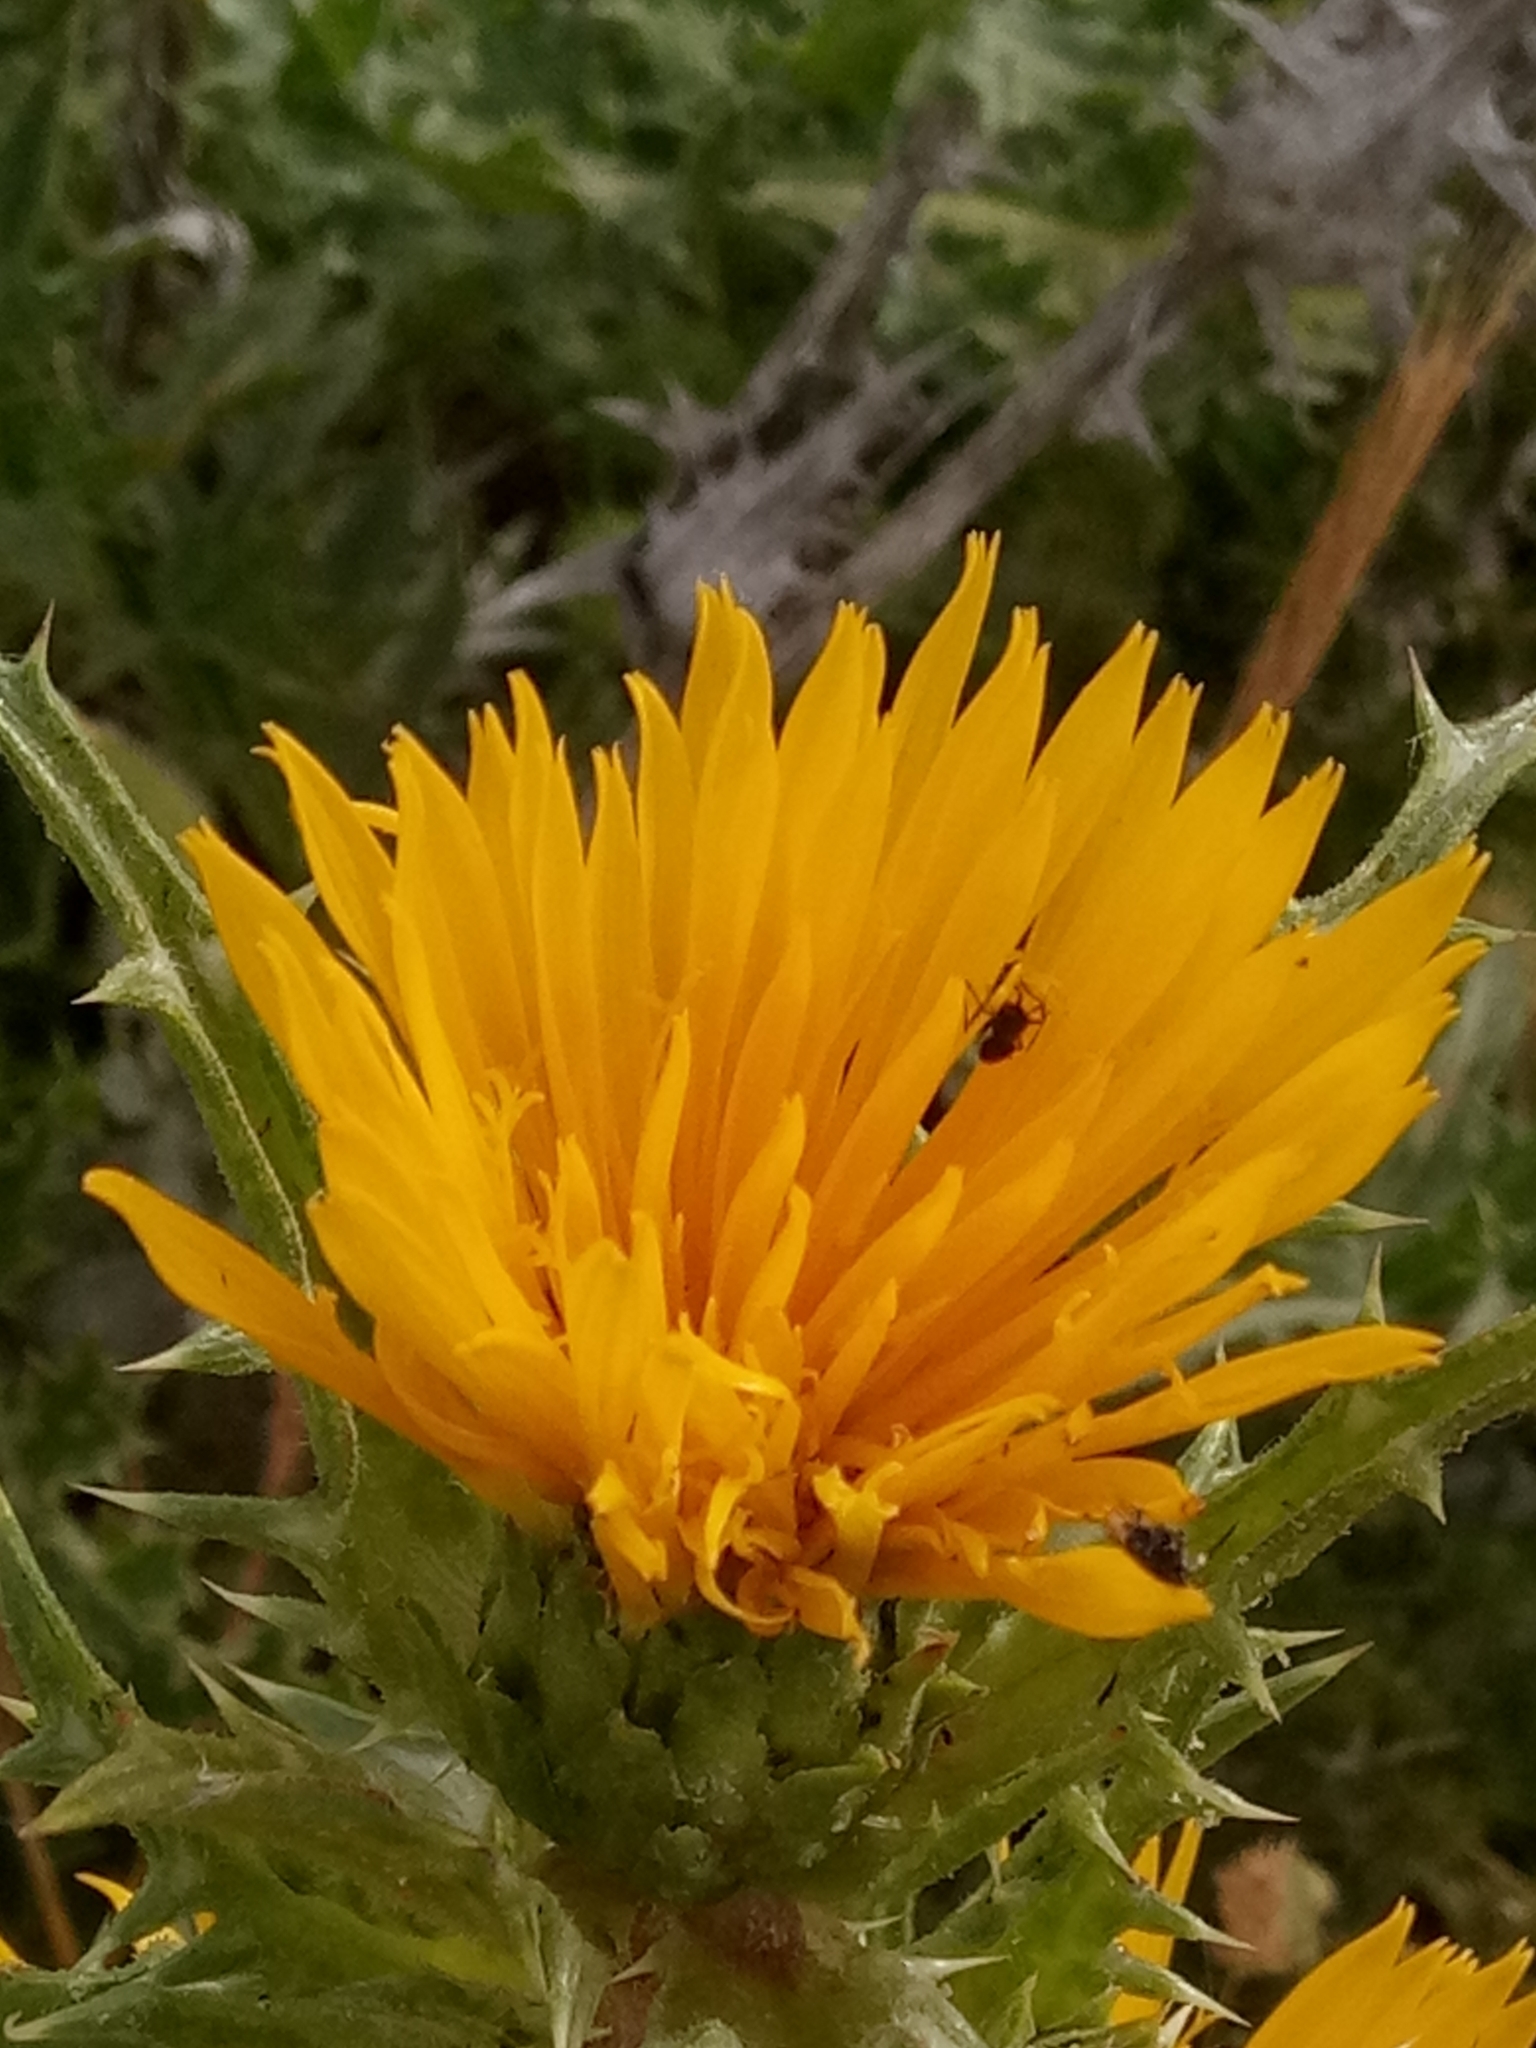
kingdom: Plantae
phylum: Tracheophyta
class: Magnoliopsida
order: Asterales
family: Asteraceae
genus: Scolymus
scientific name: Scolymus grandiflorus
